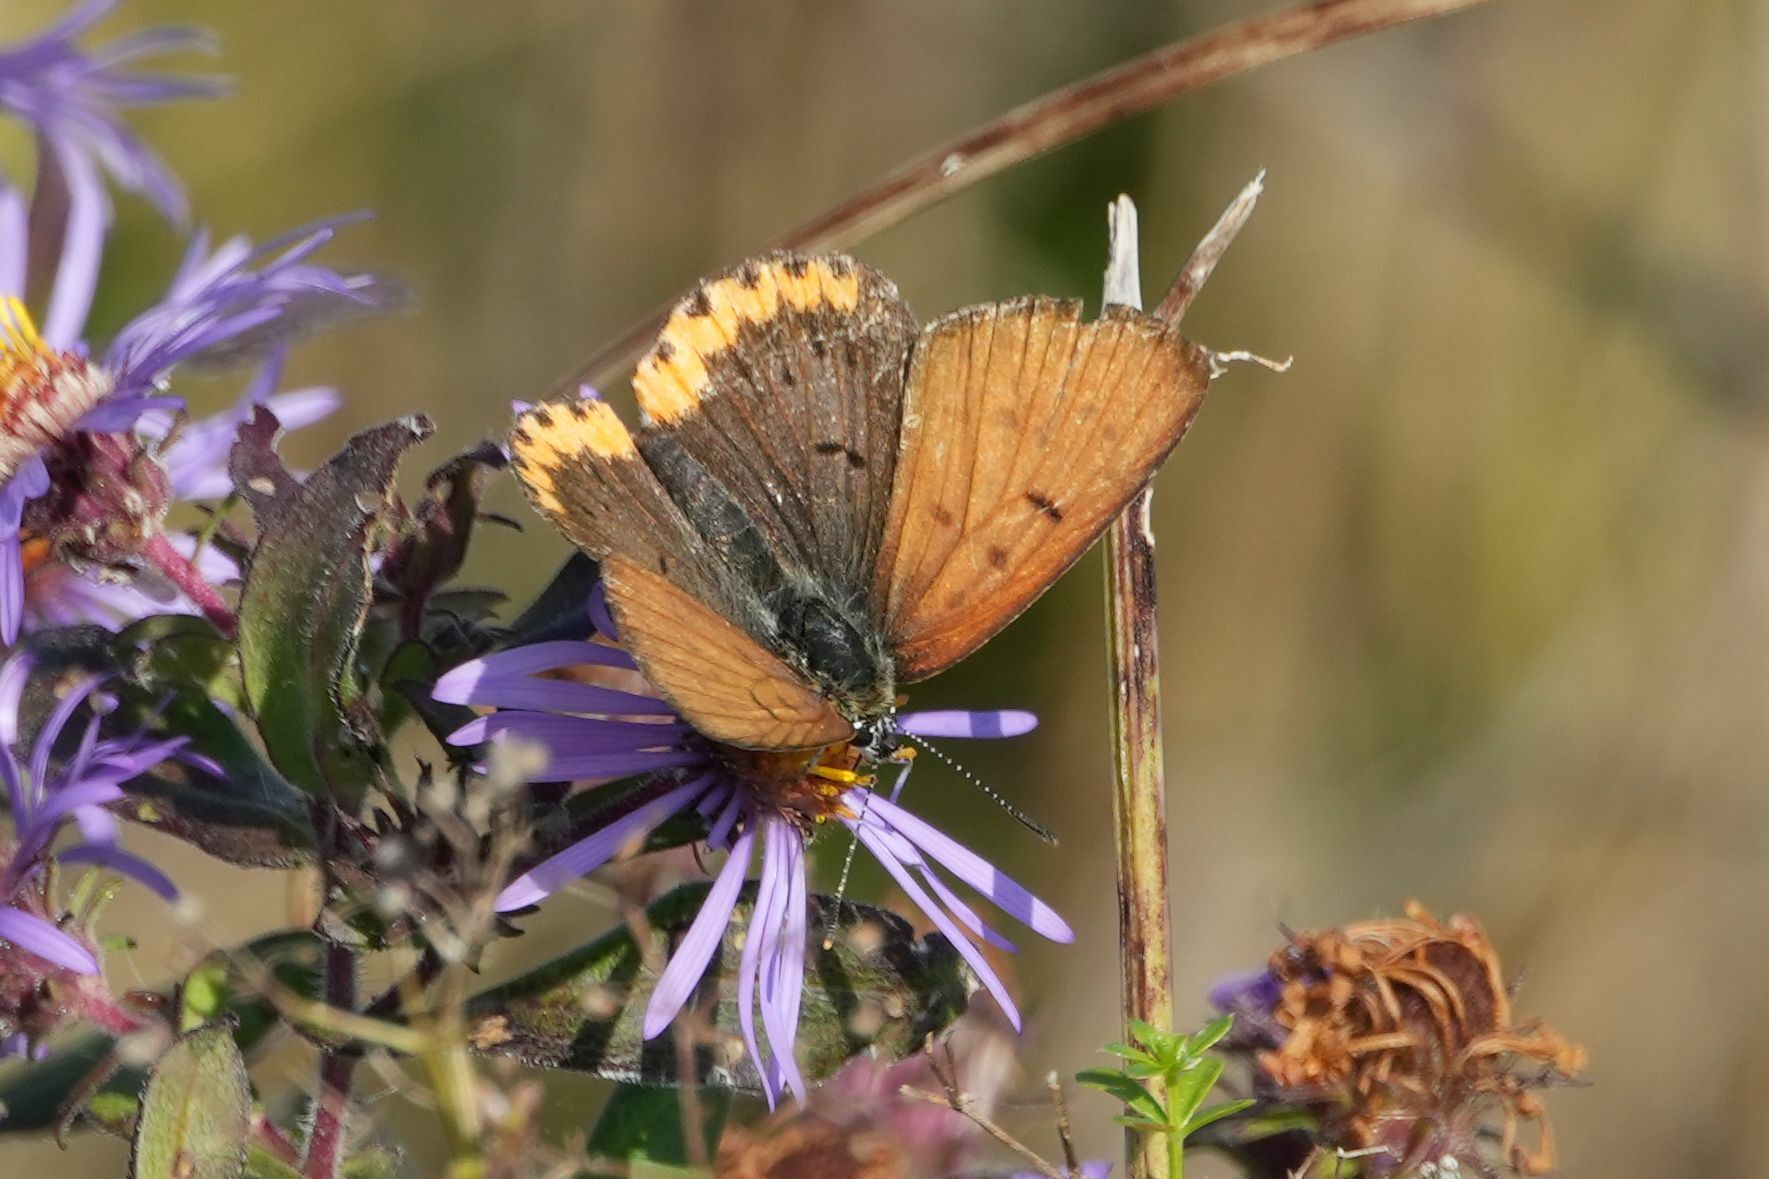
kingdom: Animalia
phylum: Arthropoda
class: Insecta
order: Lepidoptera
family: Lycaenidae
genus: Tharsalea
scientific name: Tharsalea hyllus
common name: Bronze copper
